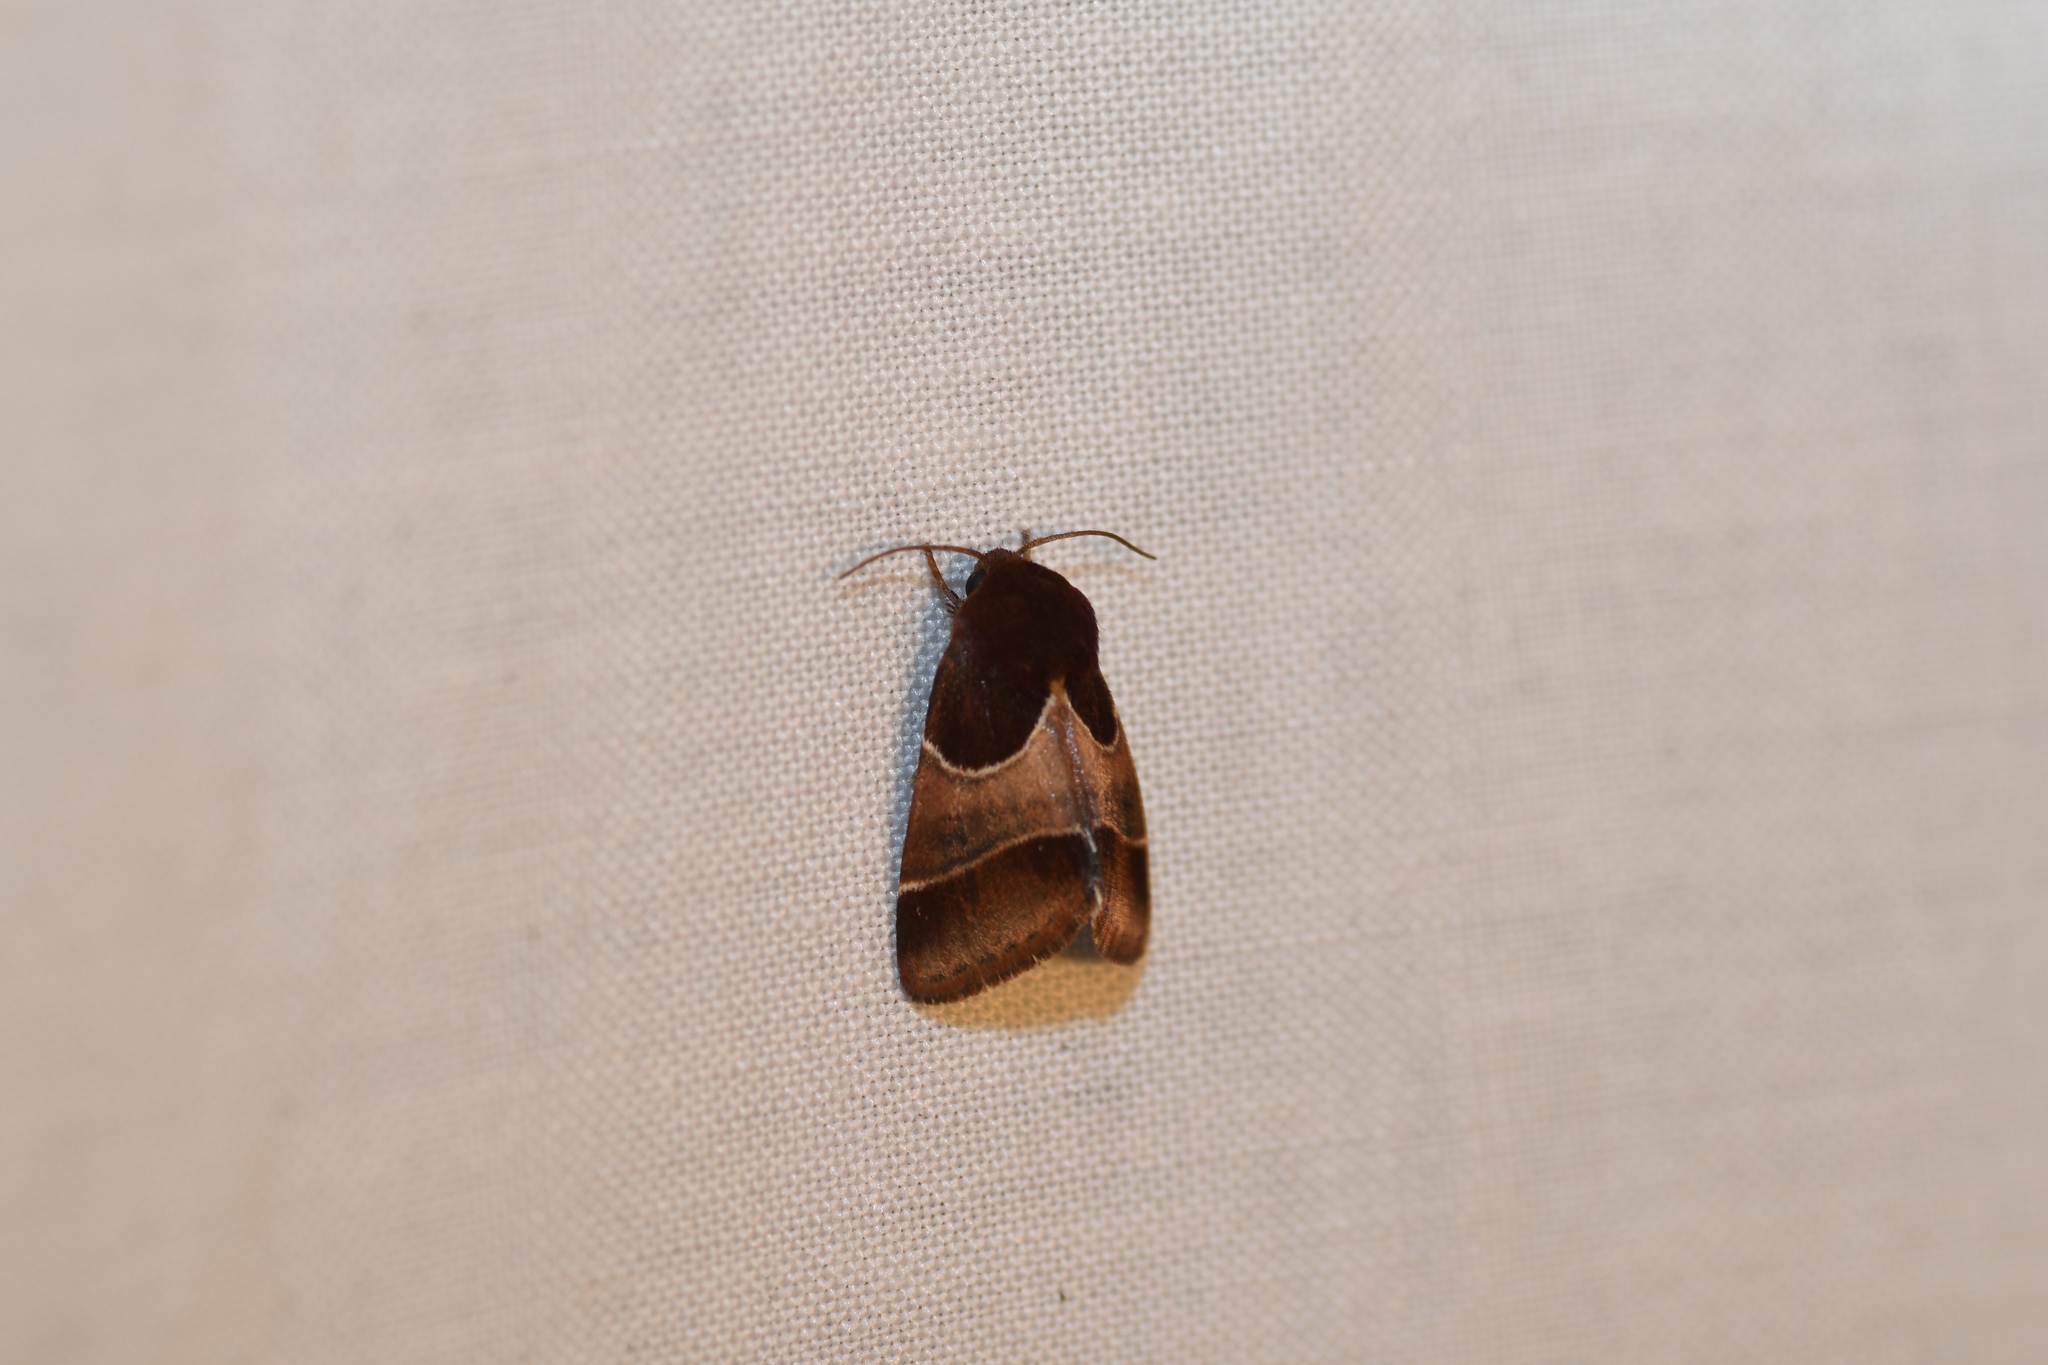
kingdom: Animalia
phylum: Arthropoda
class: Insecta
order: Lepidoptera
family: Noctuidae
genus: Schinia
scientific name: Schinia arcigera
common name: Arcigera flower moth
